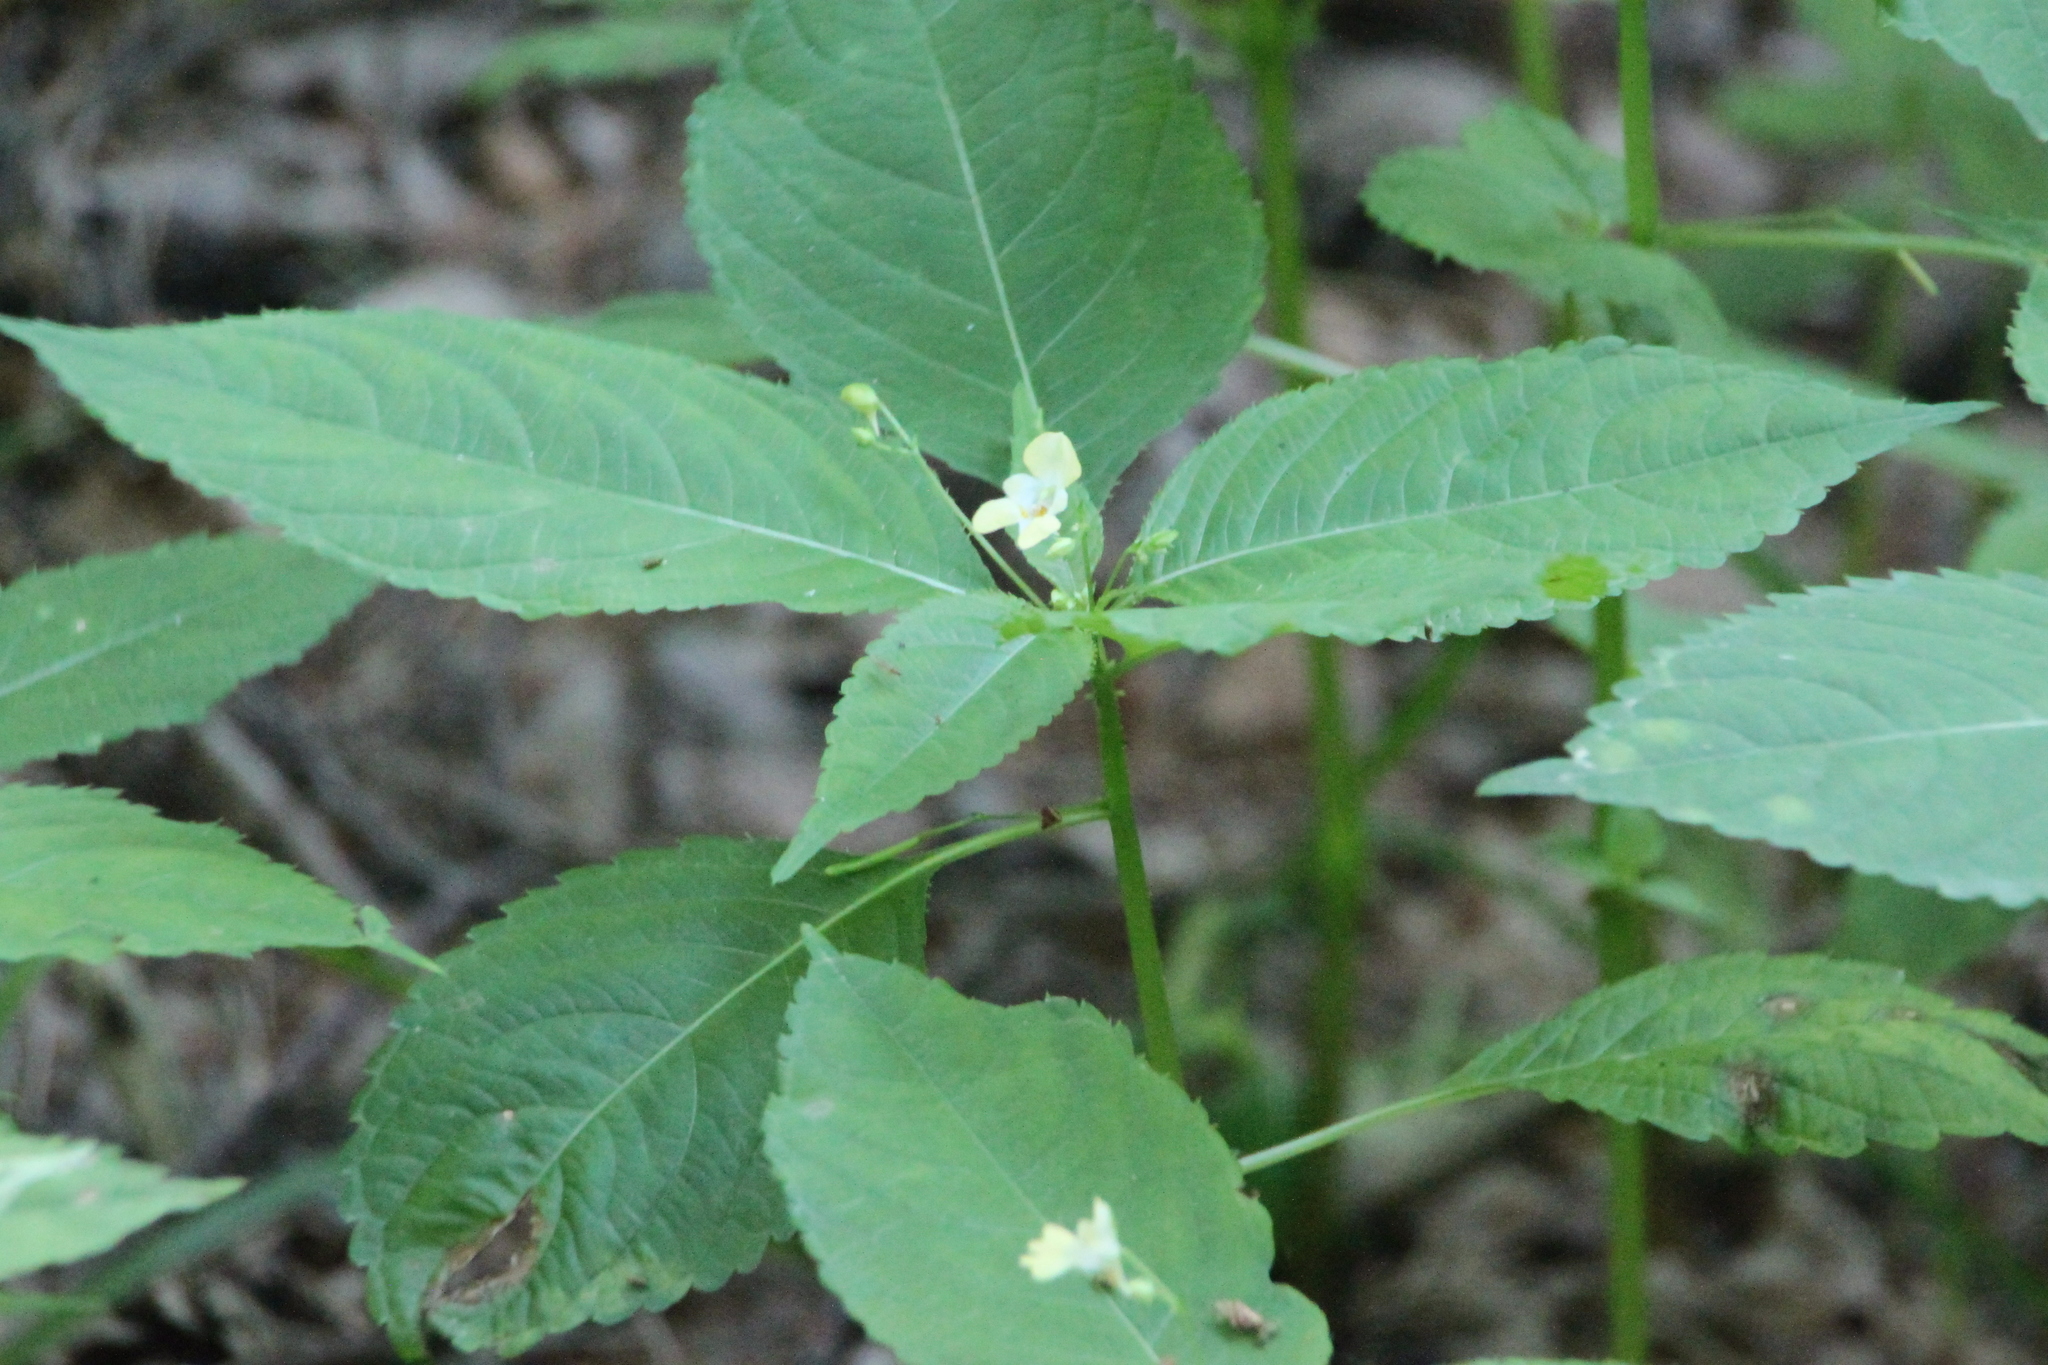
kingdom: Plantae
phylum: Tracheophyta
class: Magnoliopsida
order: Ericales
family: Balsaminaceae
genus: Impatiens
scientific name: Impatiens parviflora
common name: Small balsam
